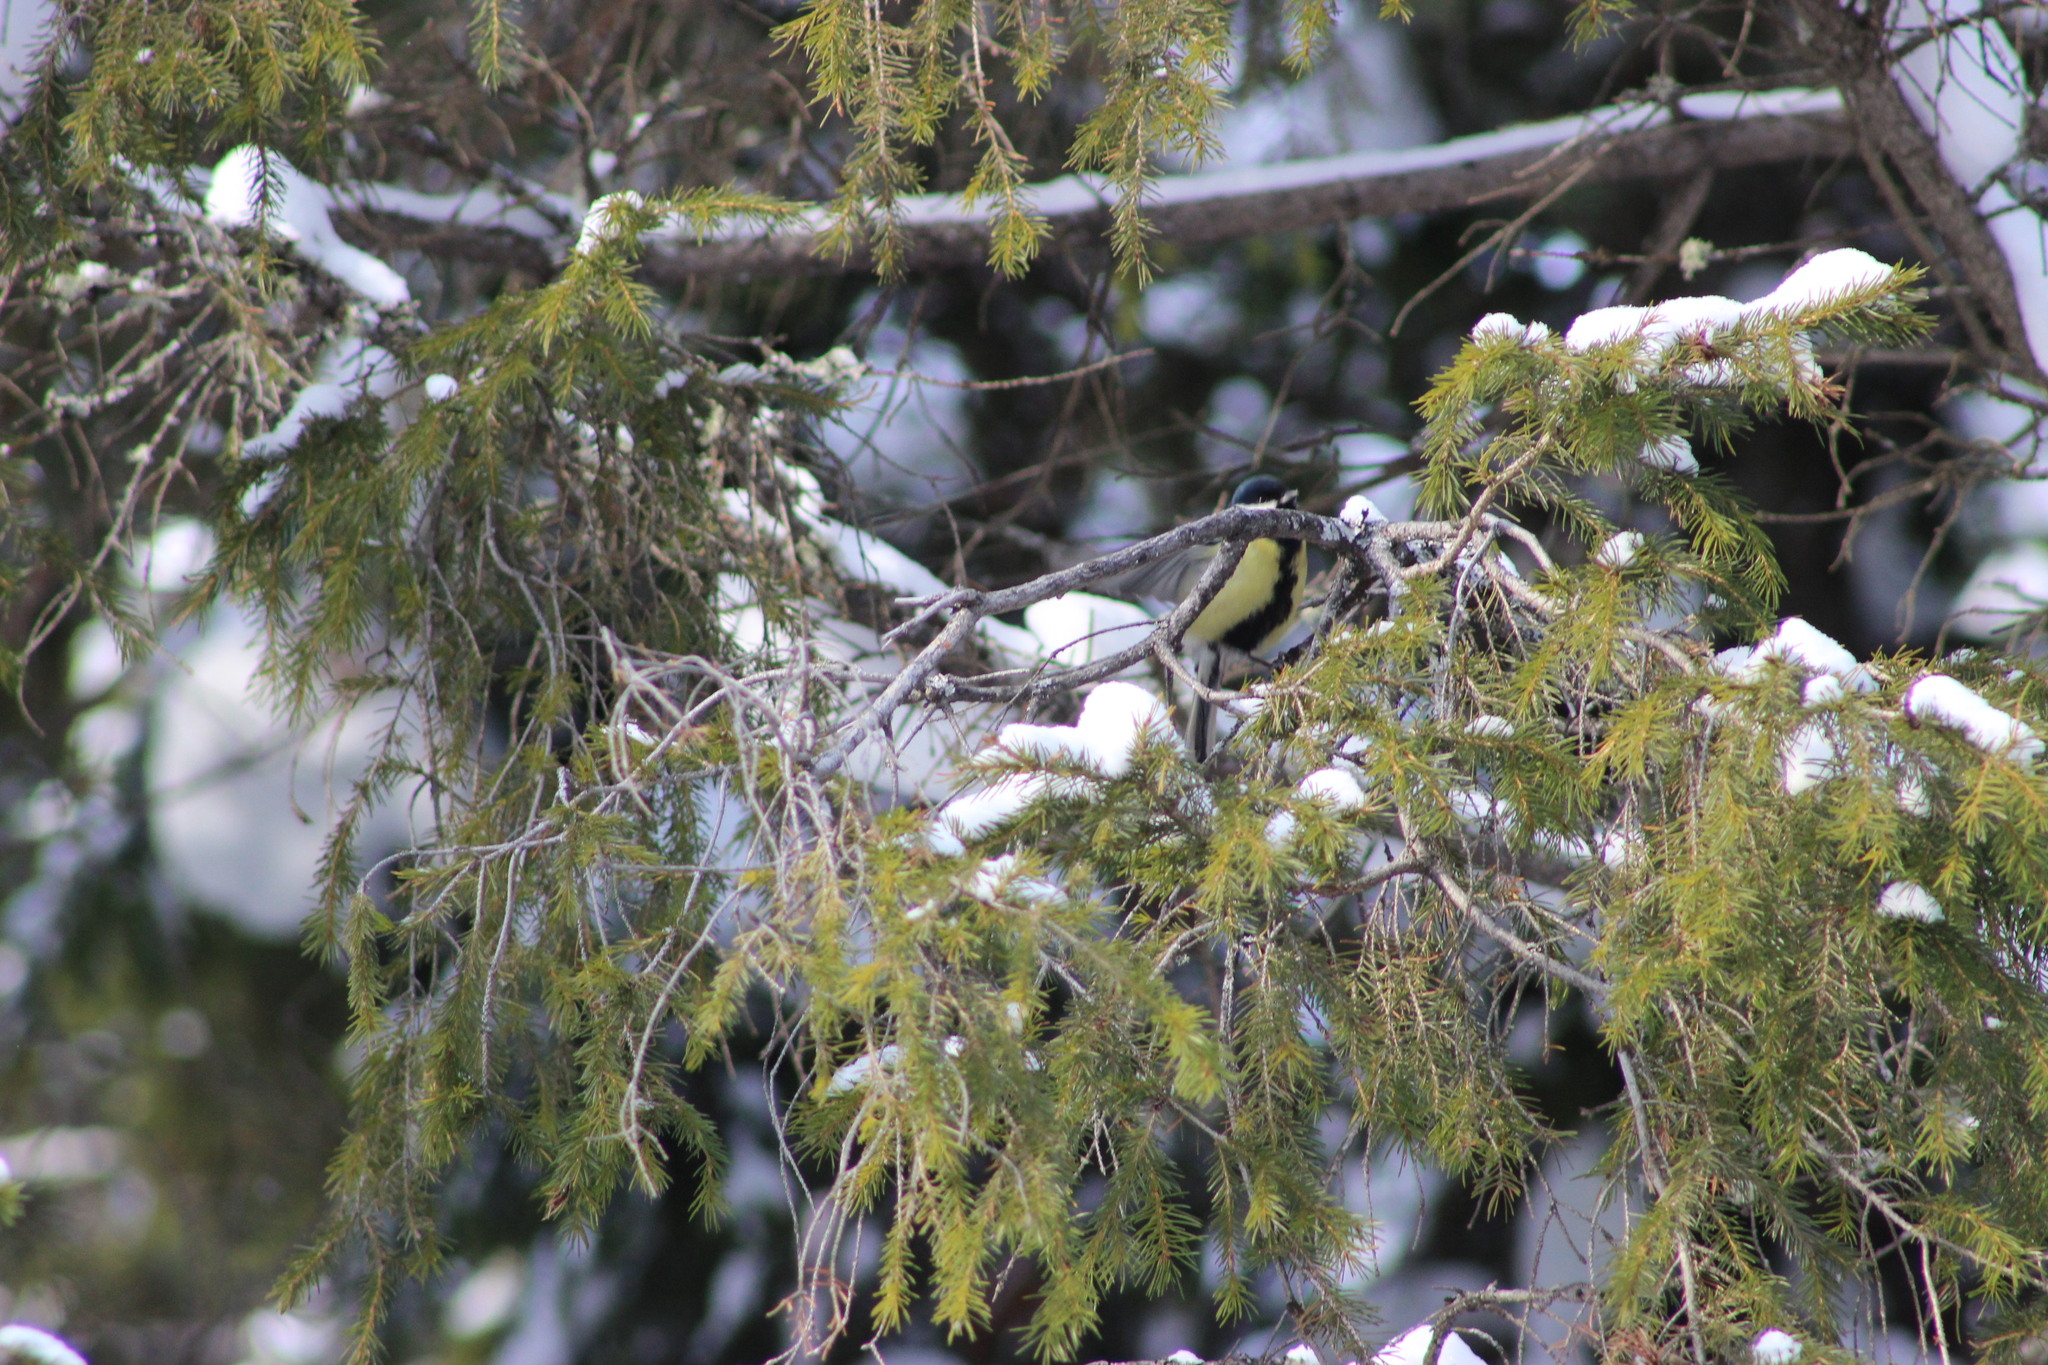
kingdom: Animalia
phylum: Chordata
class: Aves
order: Passeriformes
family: Paridae
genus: Parus
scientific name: Parus major
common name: Great tit
